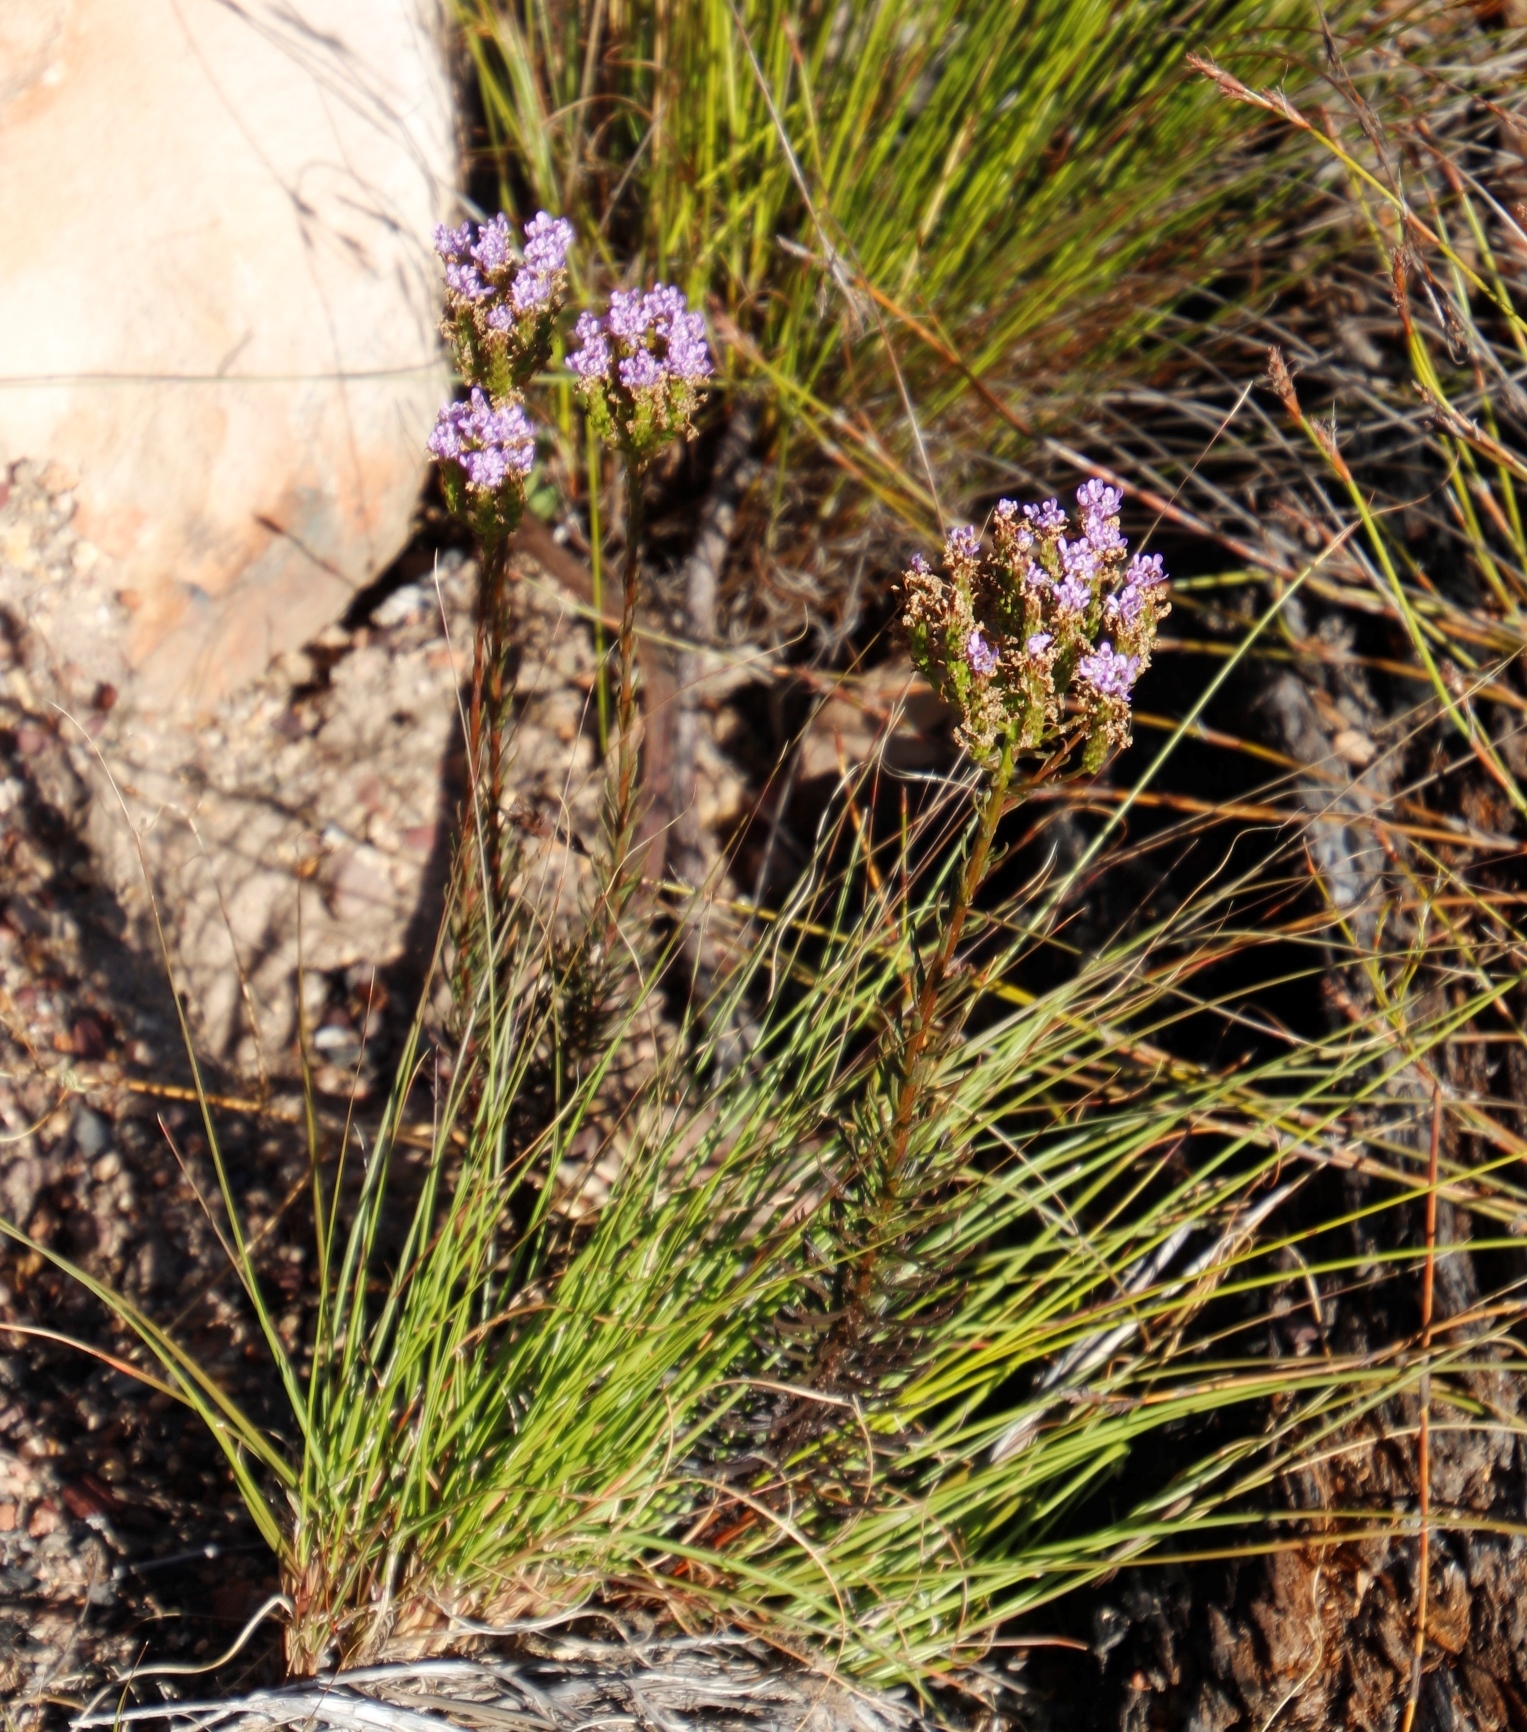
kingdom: Plantae
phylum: Tracheophyta
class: Magnoliopsida
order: Lamiales
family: Scrophulariaceae
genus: Pseudoselago
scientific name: Pseudoselago spuria
